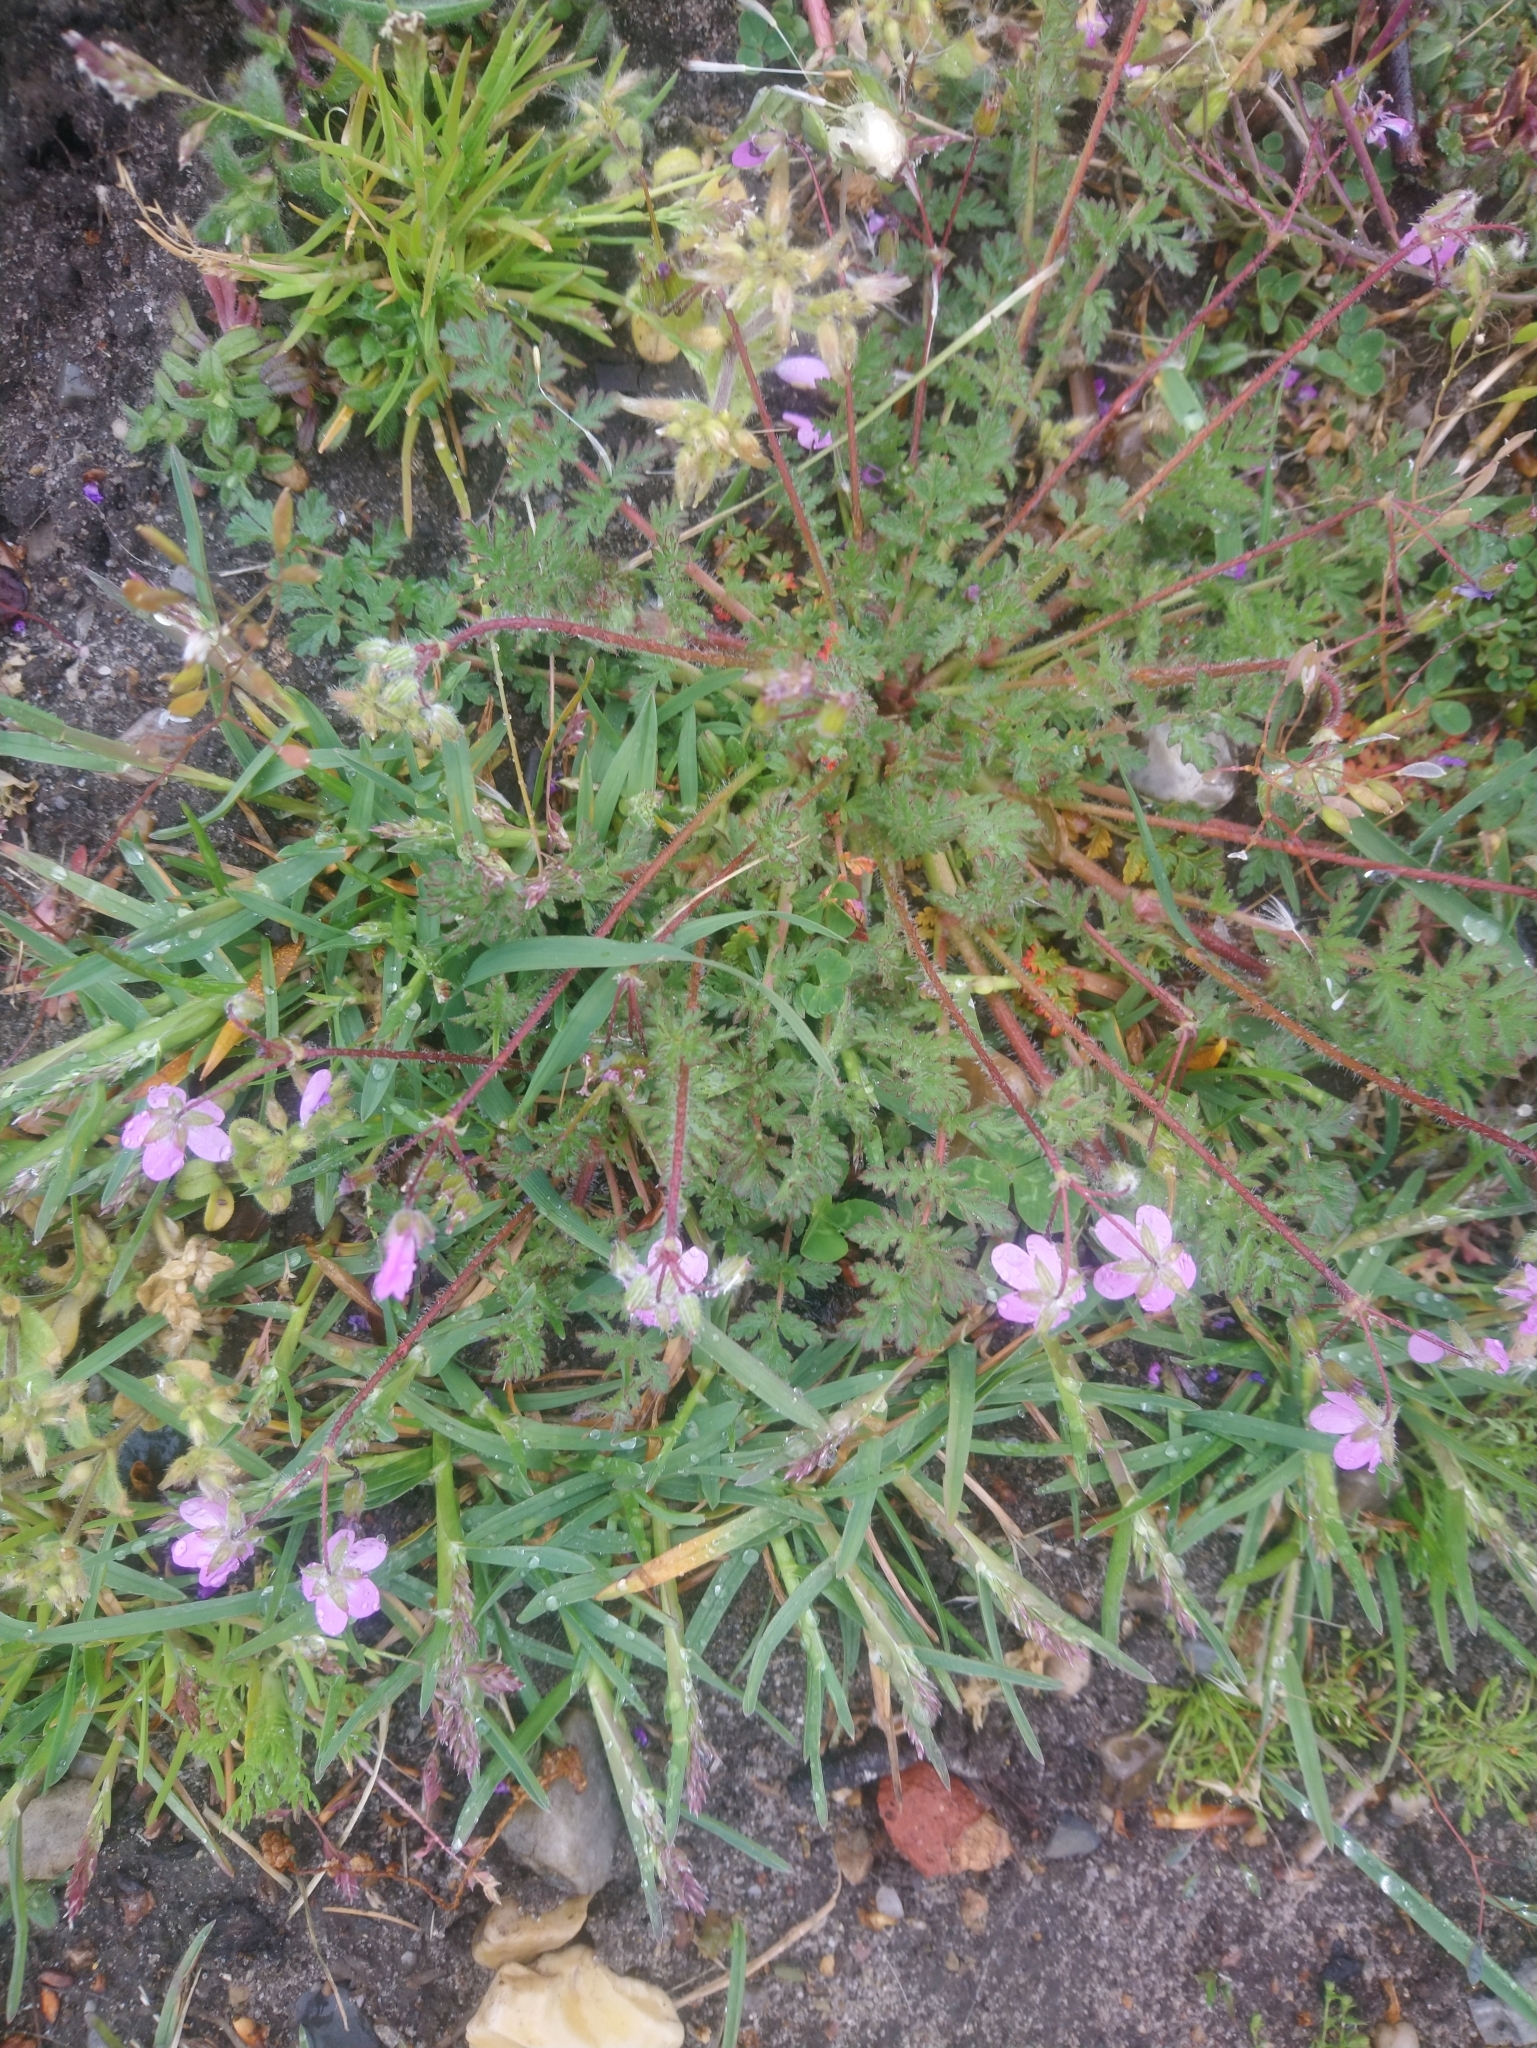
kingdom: Plantae
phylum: Tracheophyta
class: Magnoliopsida
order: Geraniales
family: Geraniaceae
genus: Erodium
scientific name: Erodium cicutarium
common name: Common stork's-bill
